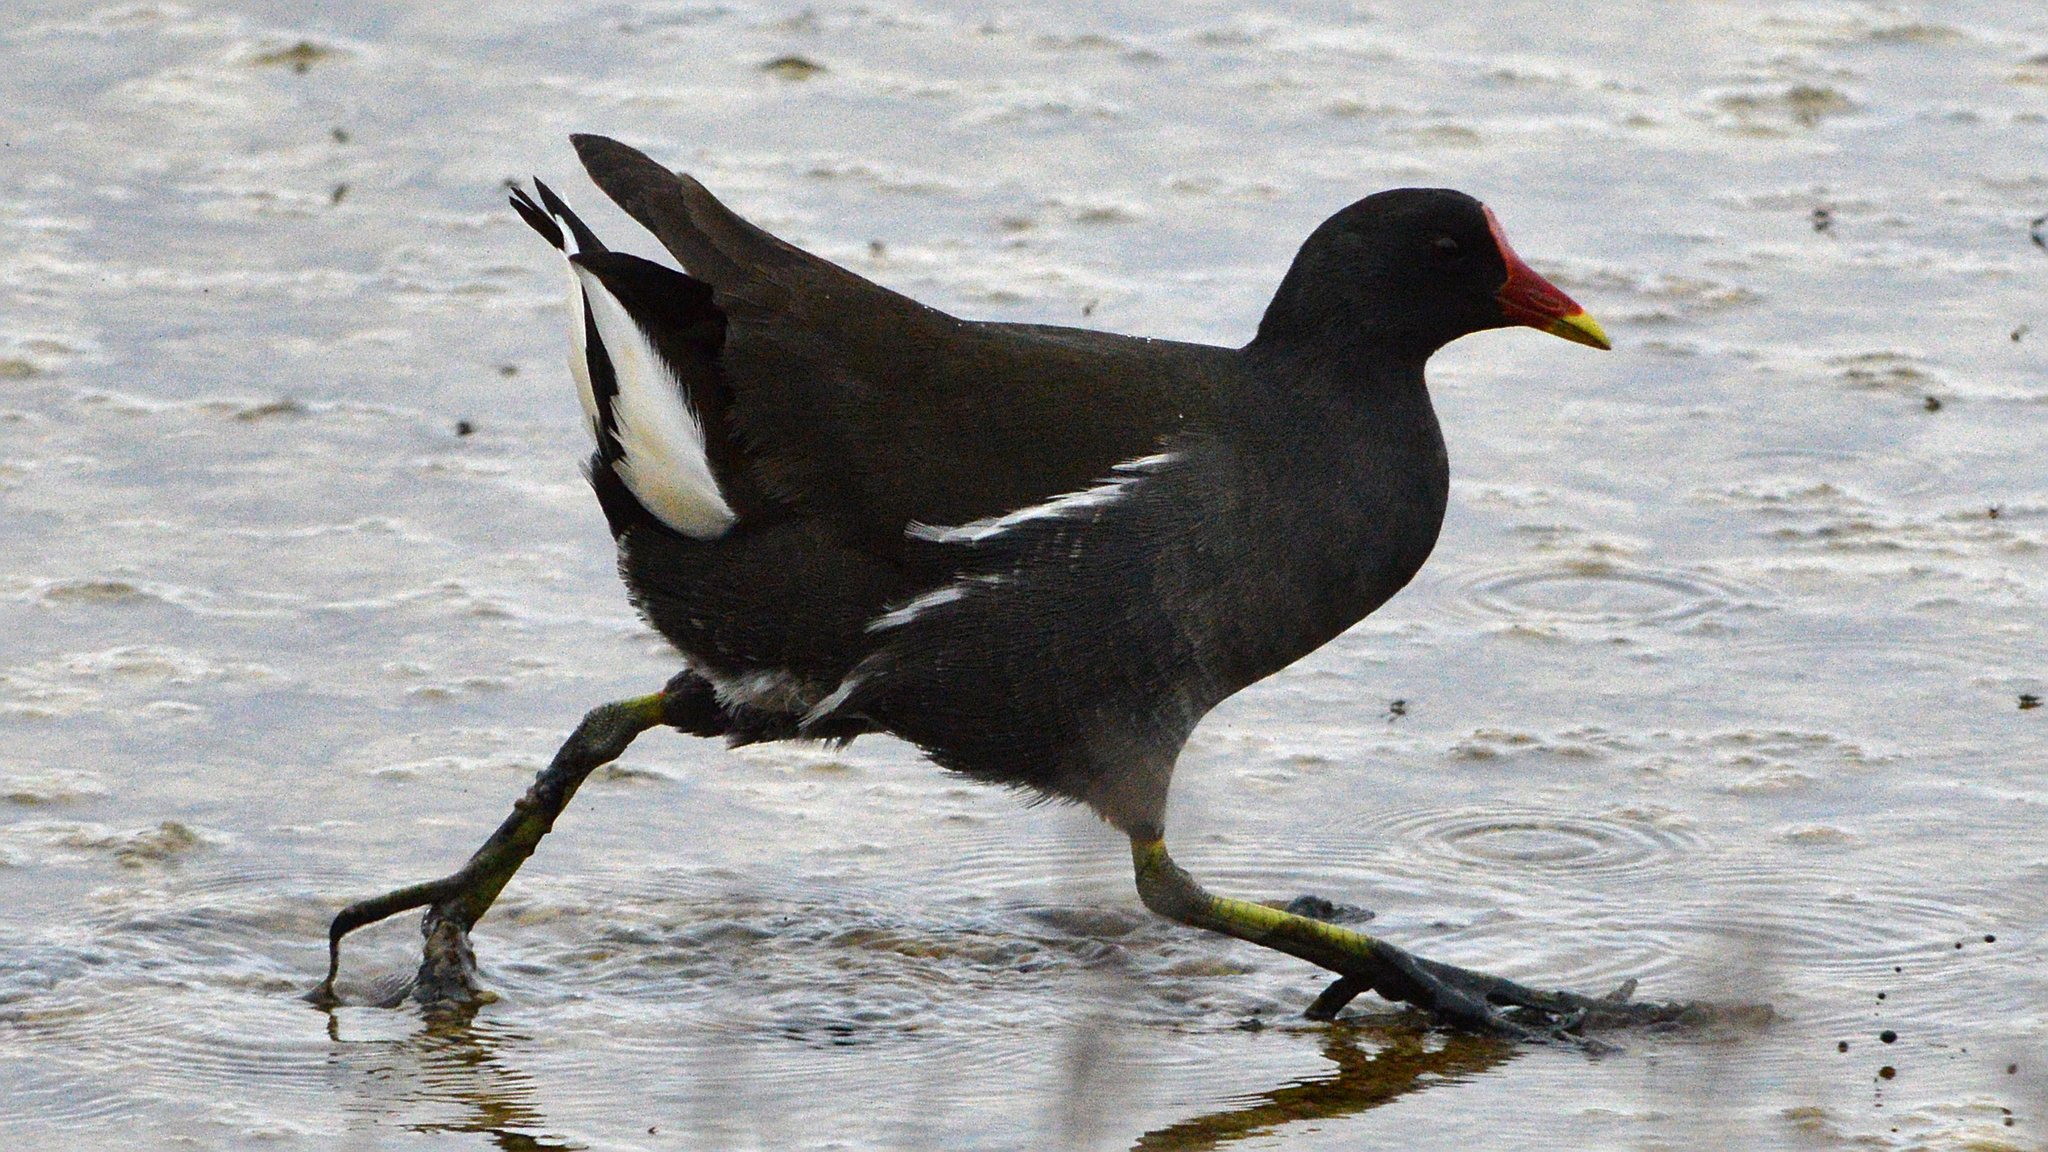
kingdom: Animalia
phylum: Chordata
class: Aves
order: Gruiformes
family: Rallidae
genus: Gallinula
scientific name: Gallinula chloropus
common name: Common moorhen
